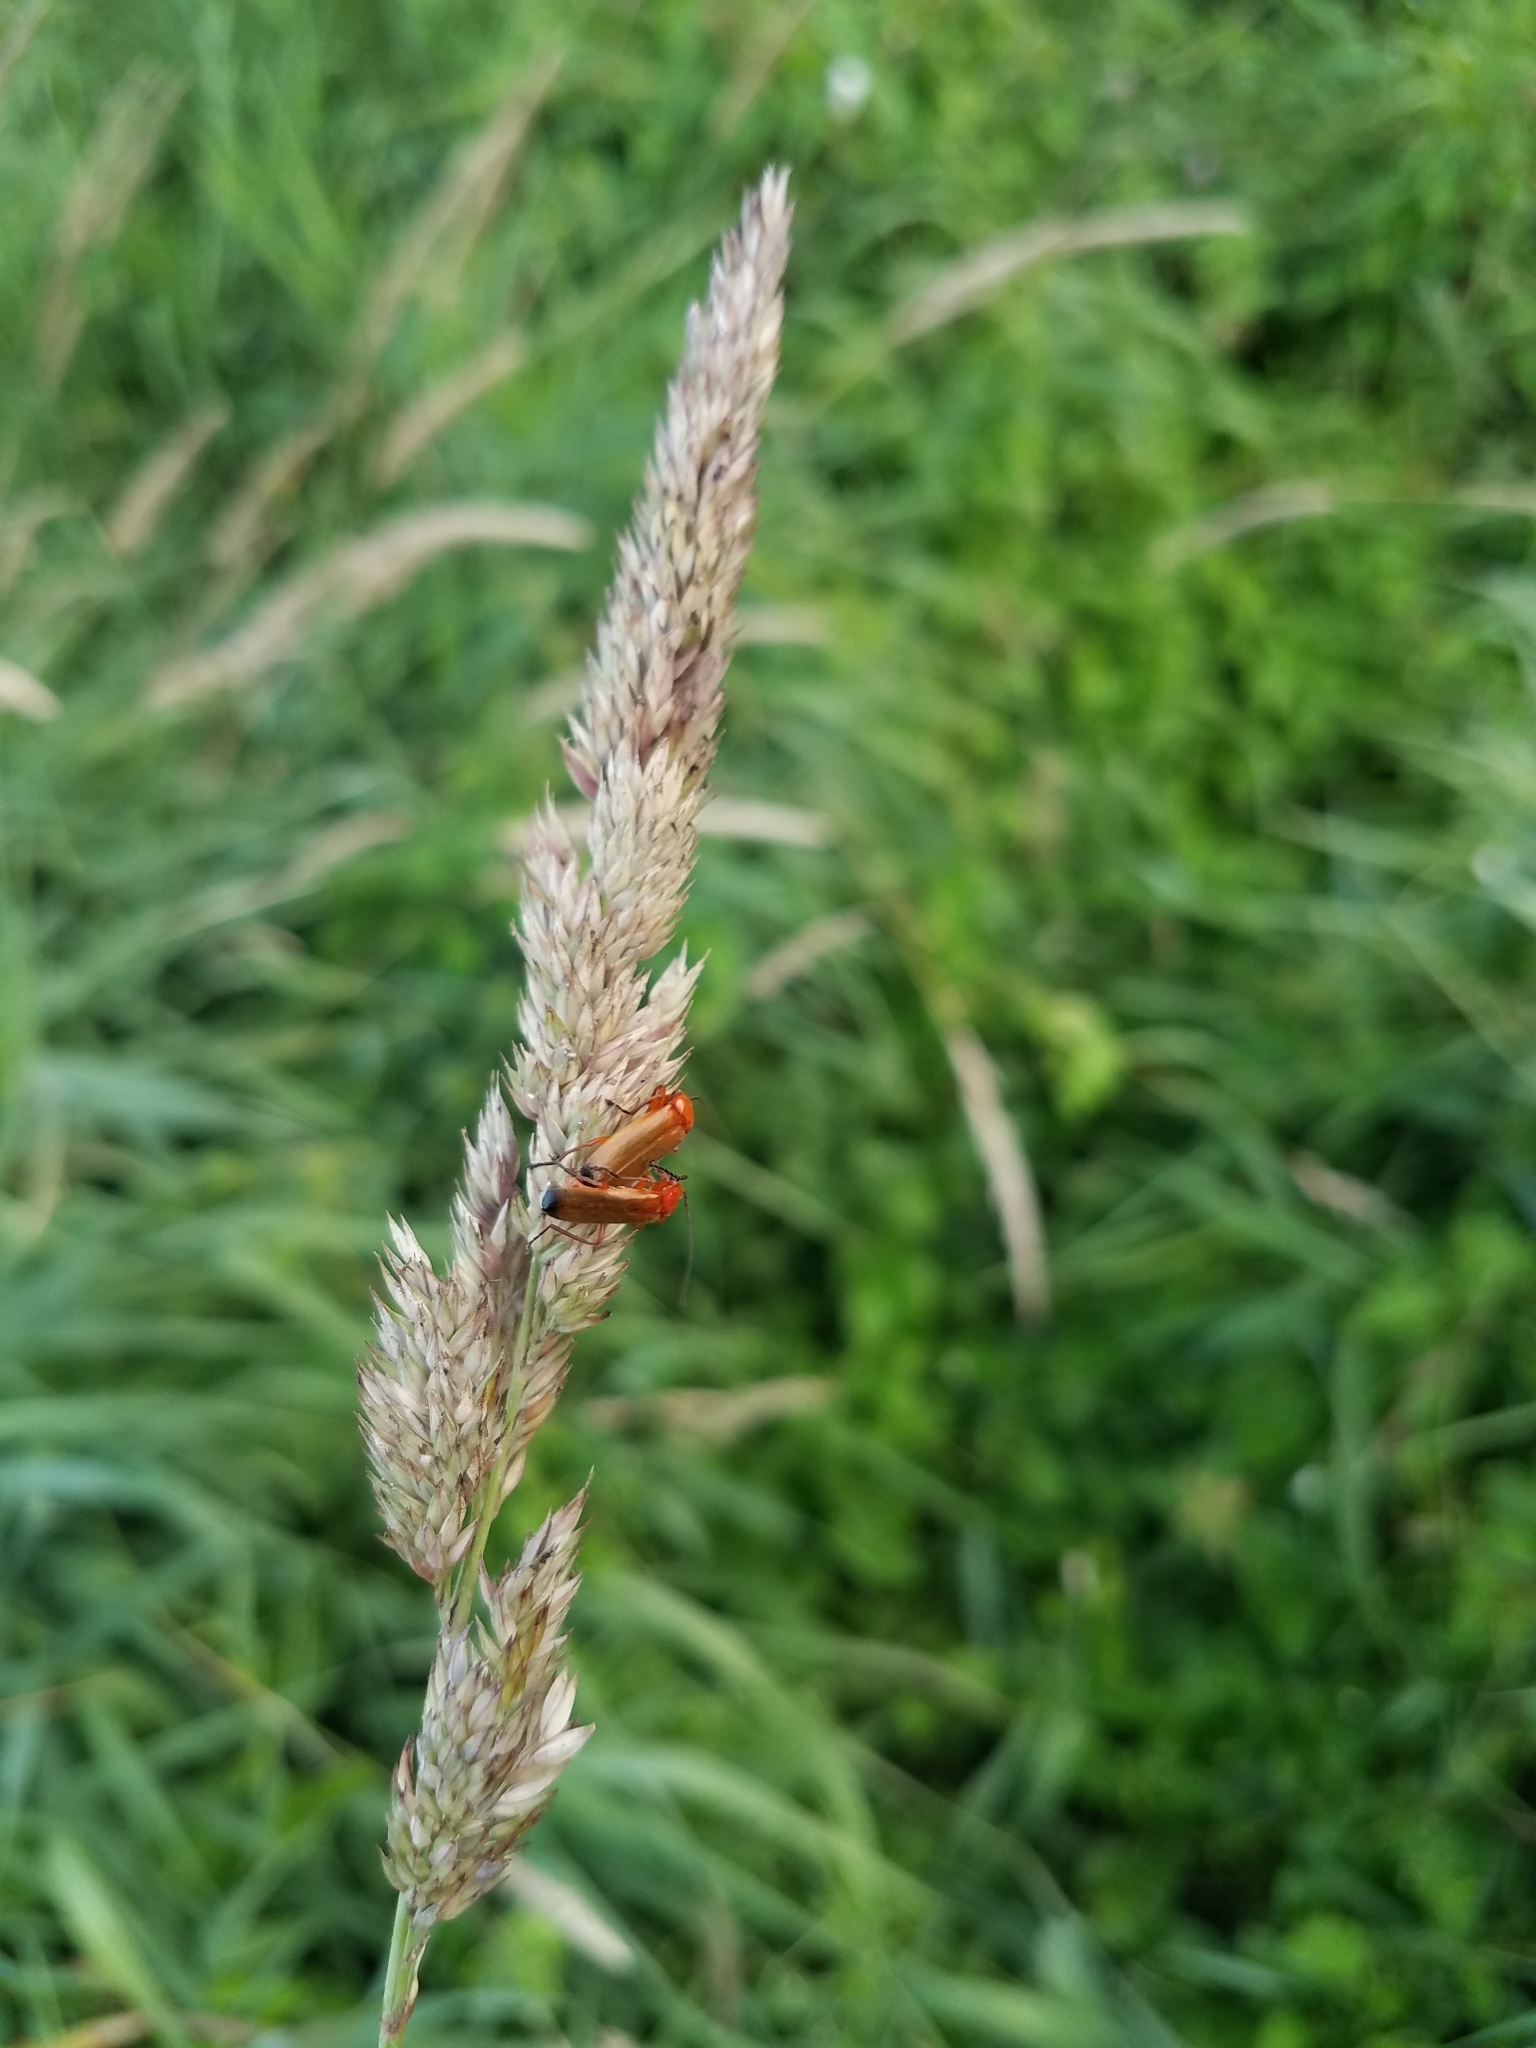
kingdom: Animalia
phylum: Arthropoda
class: Insecta
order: Coleoptera
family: Cantharidae
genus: Rhagonycha
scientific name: Rhagonycha fulva
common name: Common red soldier beetle
